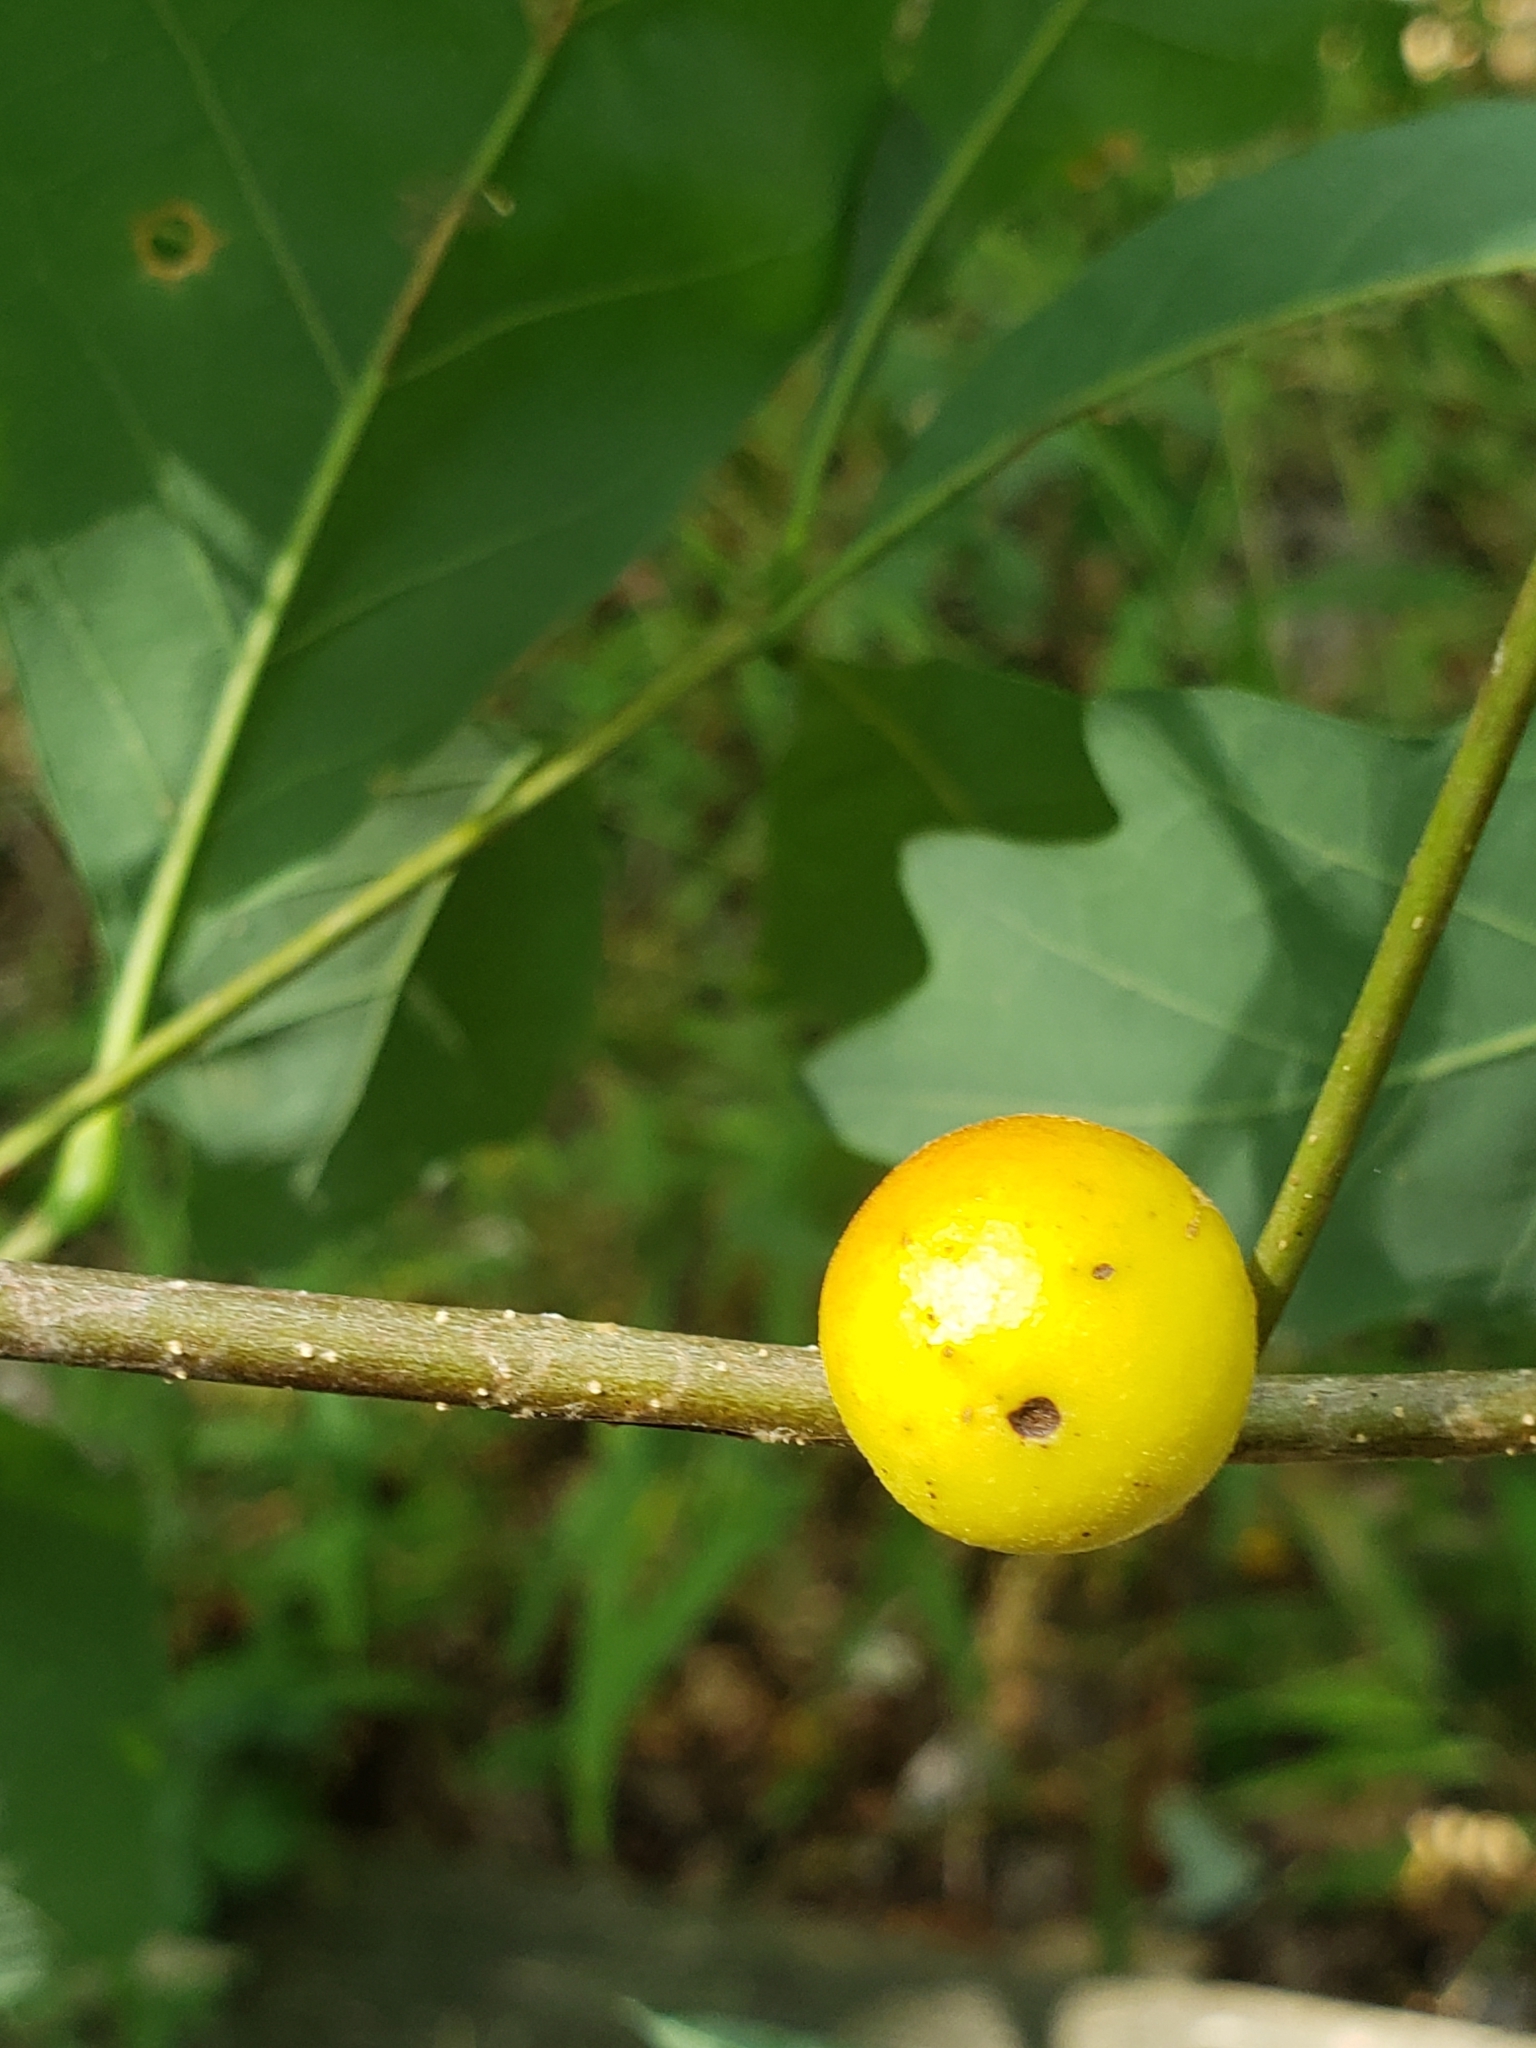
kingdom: Animalia
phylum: Arthropoda
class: Insecta
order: Hymenoptera
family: Cynipidae
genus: Disholcaspis
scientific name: Disholcaspis quercusglobulus
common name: Round bullet gall wasp
